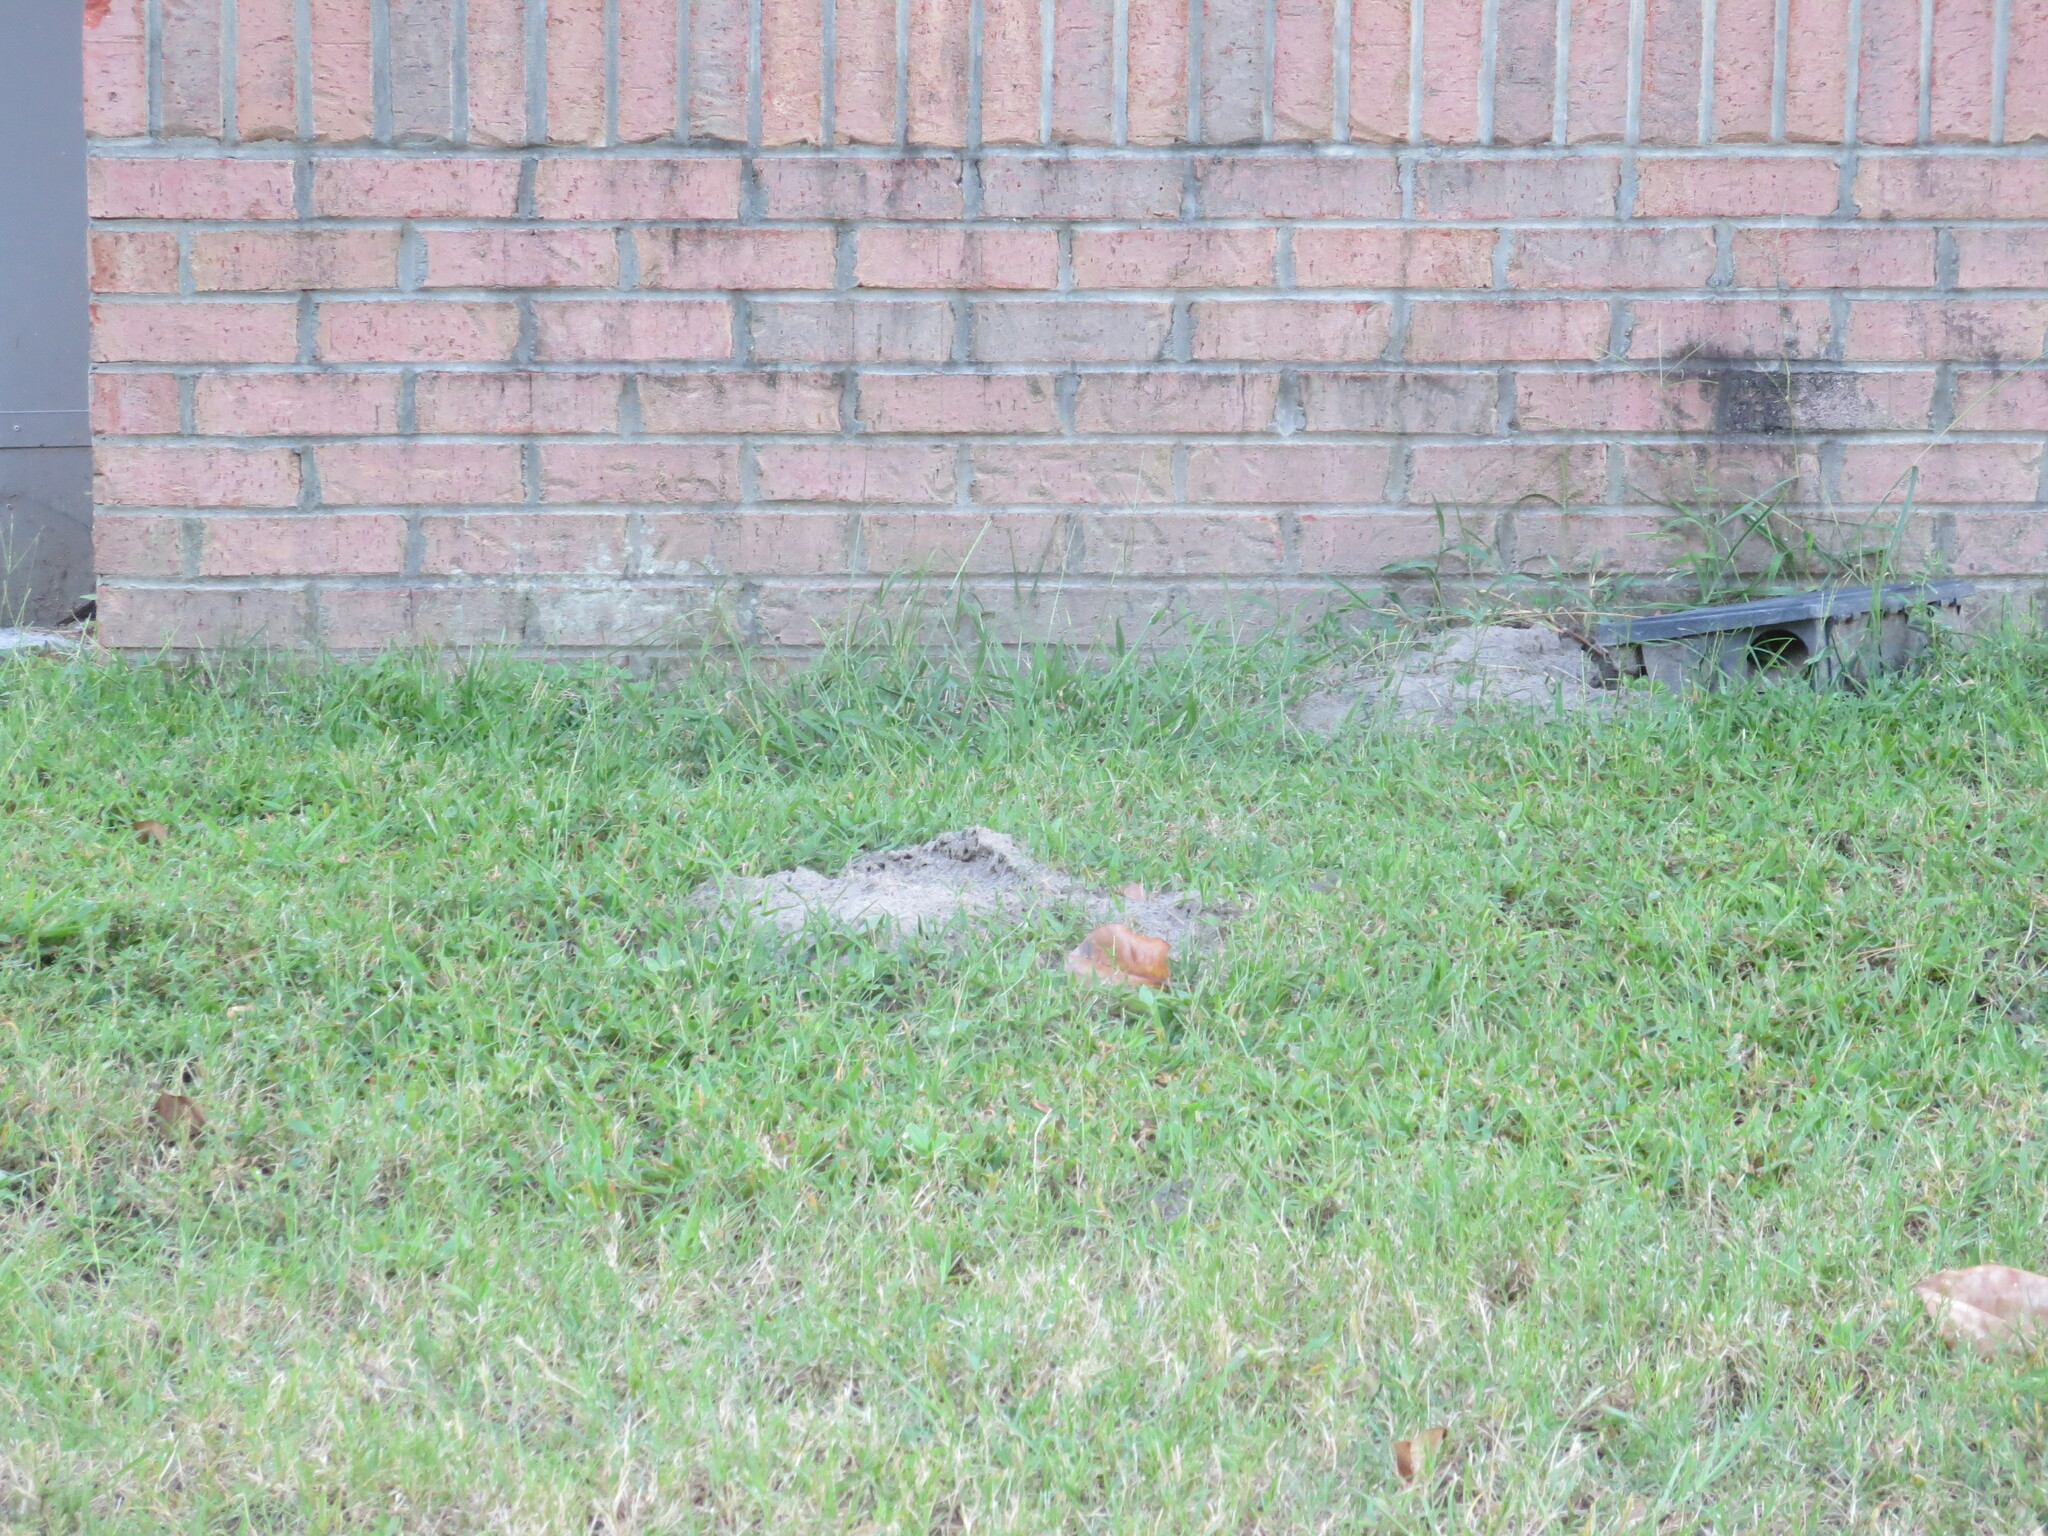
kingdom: Animalia
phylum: Arthropoda
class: Insecta
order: Hymenoptera
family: Formicidae
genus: Solenopsis
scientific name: Solenopsis invicta
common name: Red imported fire ant
